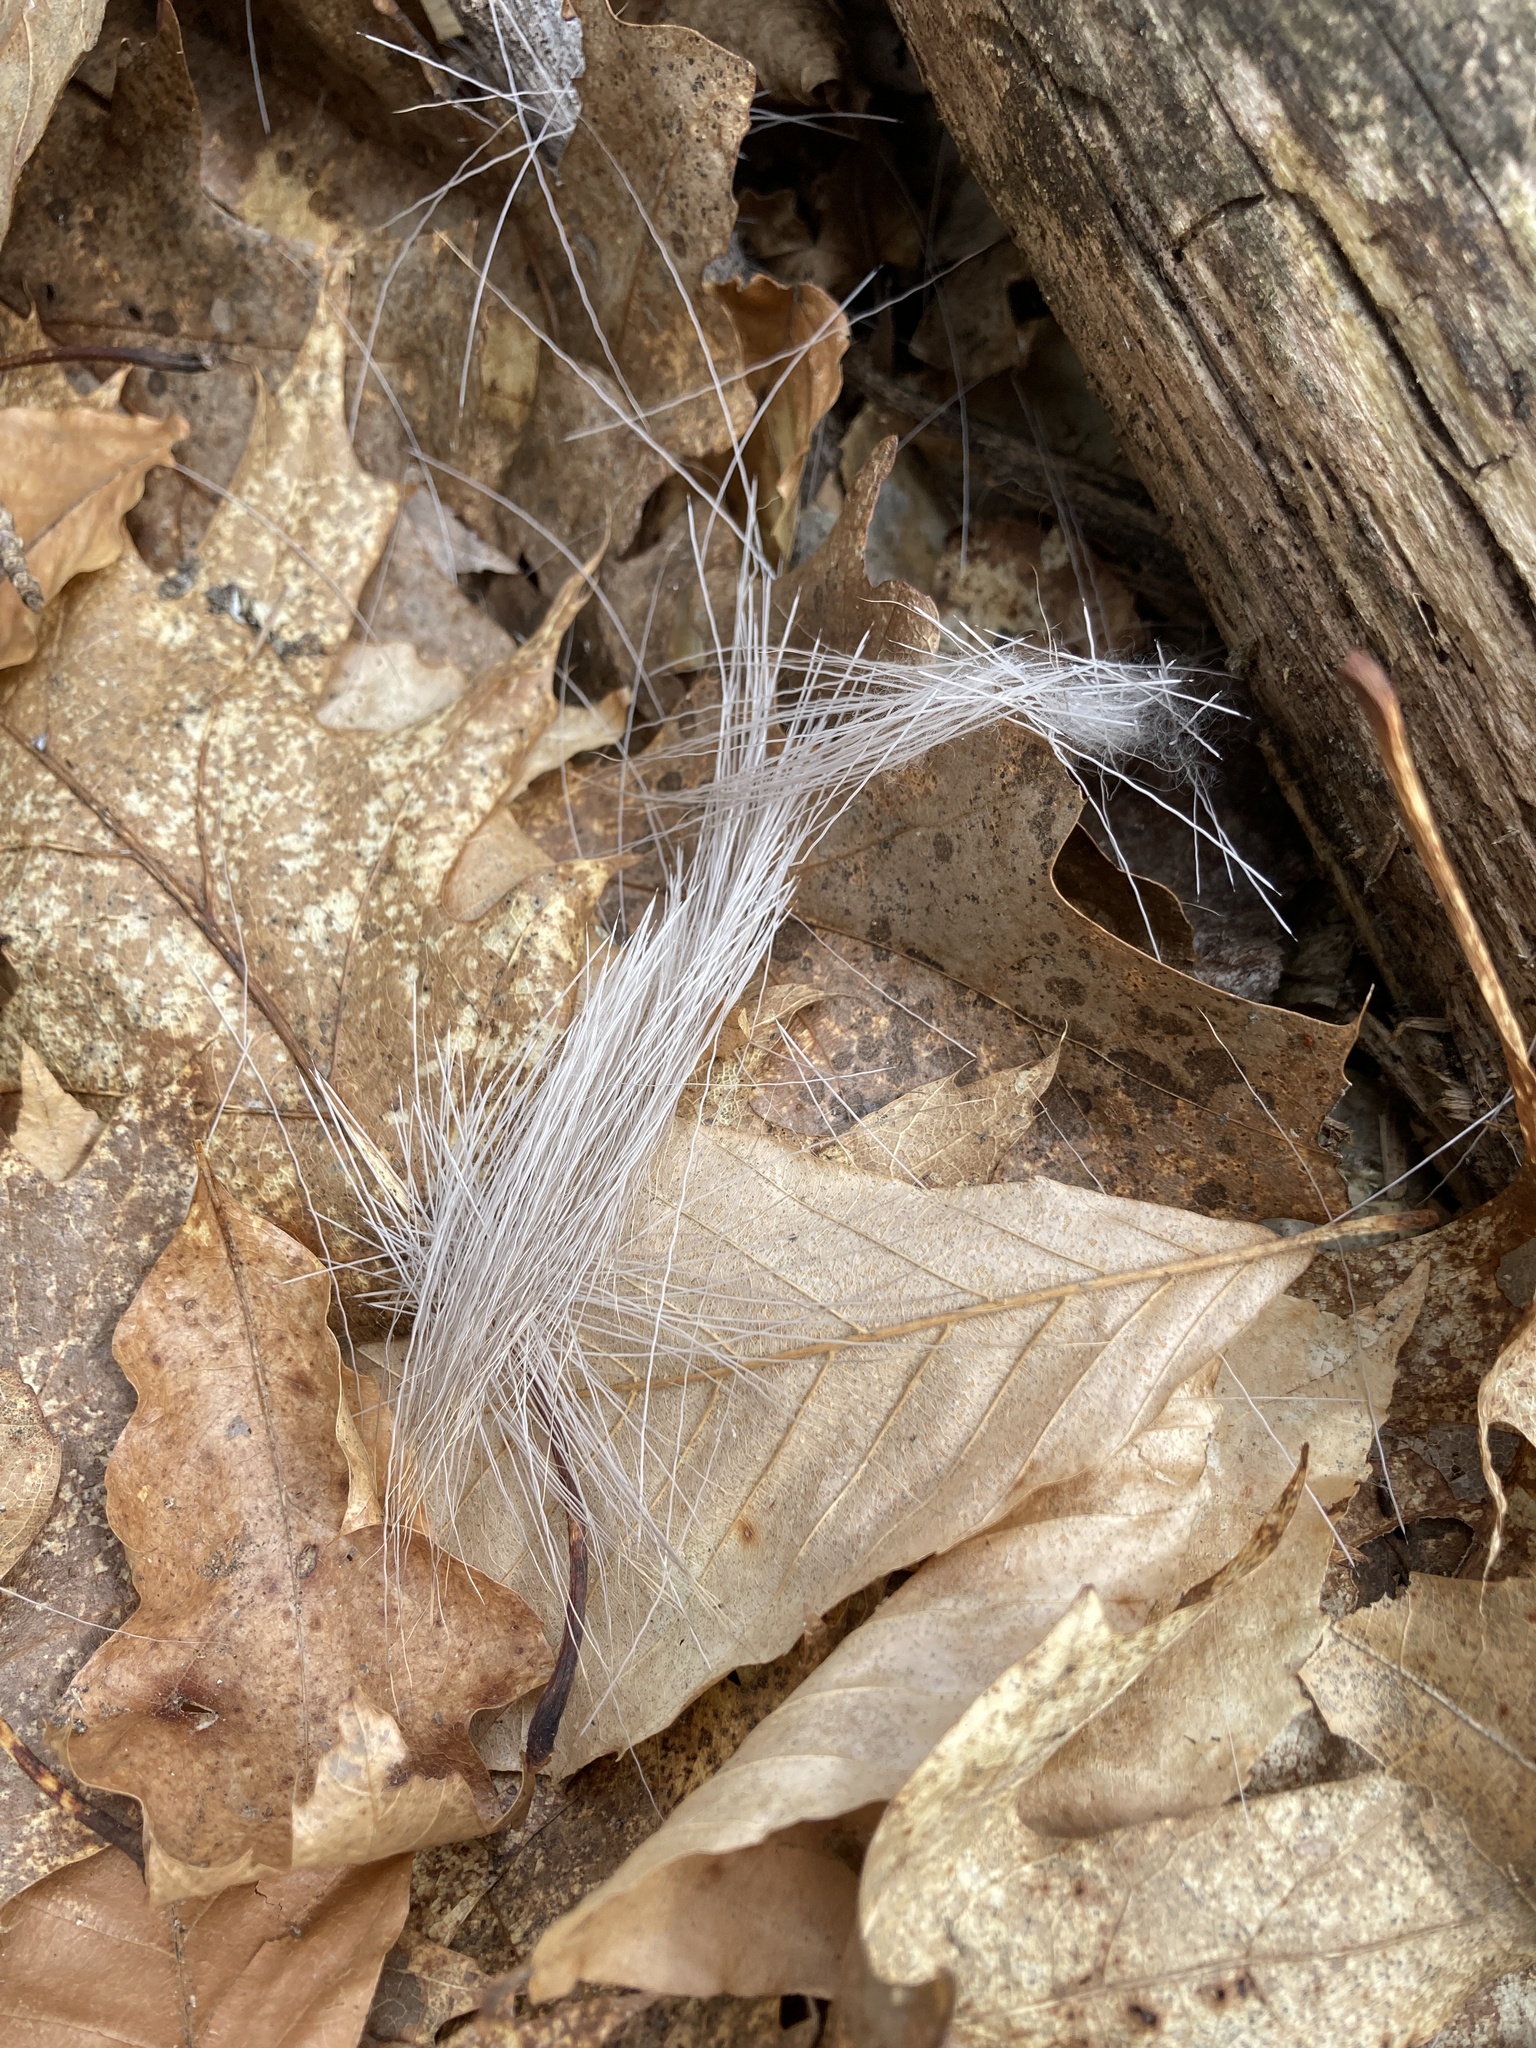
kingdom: Animalia
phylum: Chordata
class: Mammalia
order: Artiodactyla
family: Cervidae
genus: Odocoileus
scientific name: Odocoileus virginianus
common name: White-tailed deer
